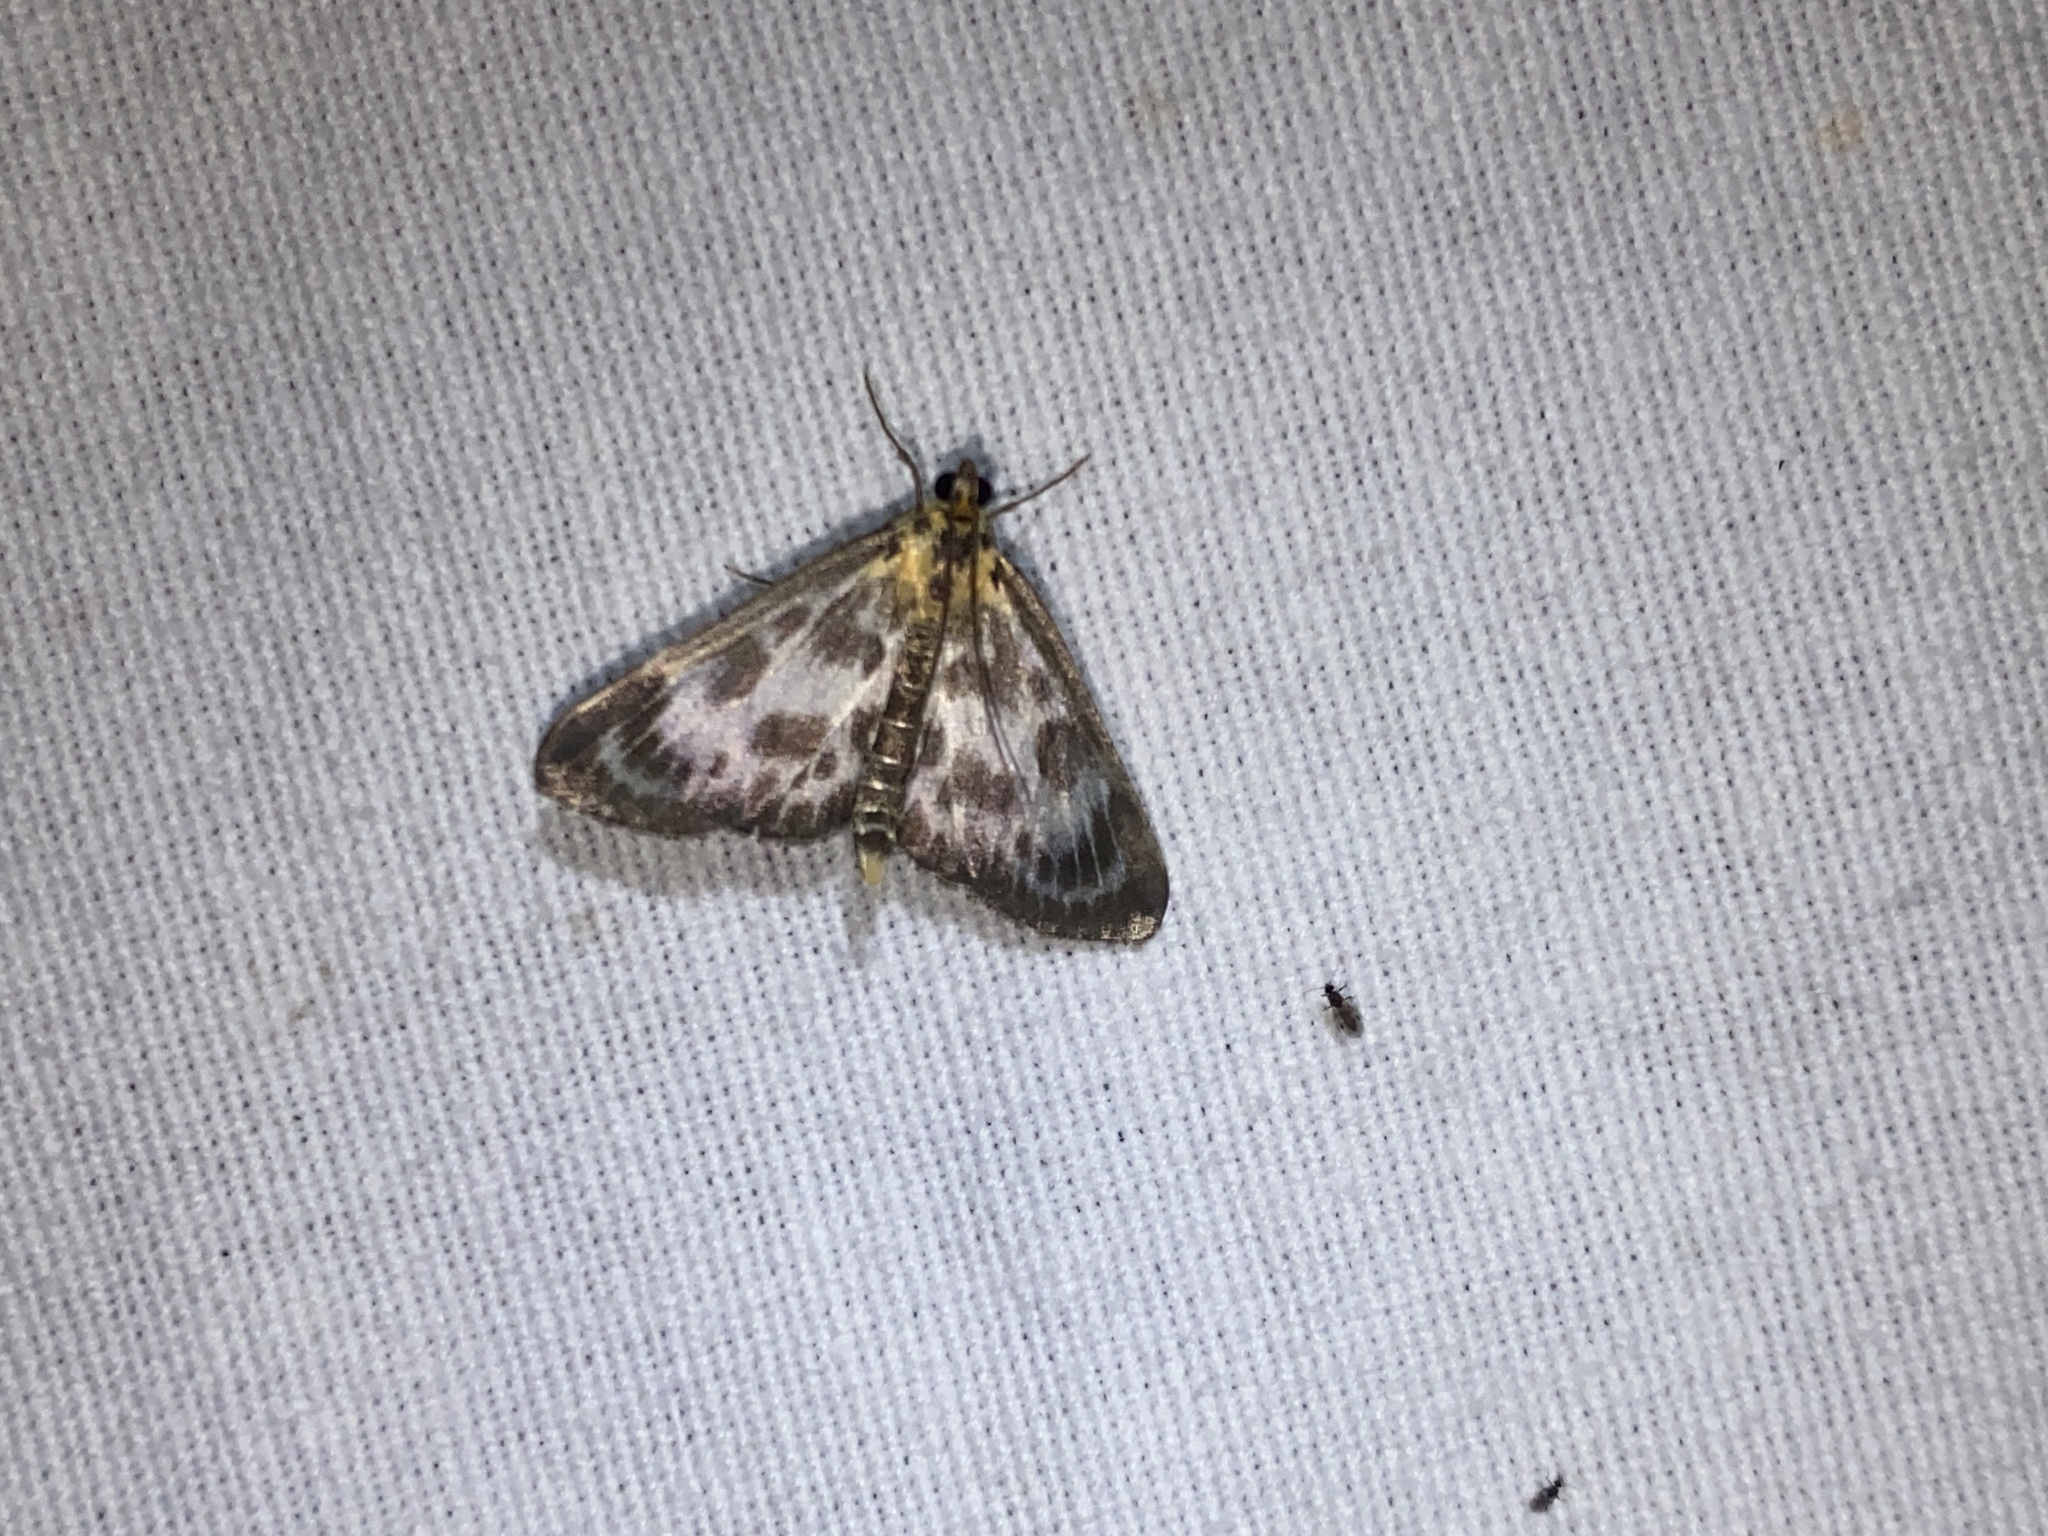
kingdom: Animalia
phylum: Arthropoda
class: Insecta
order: Lepidoptera
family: Crambidae
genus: Anania
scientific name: Anania hortulata
